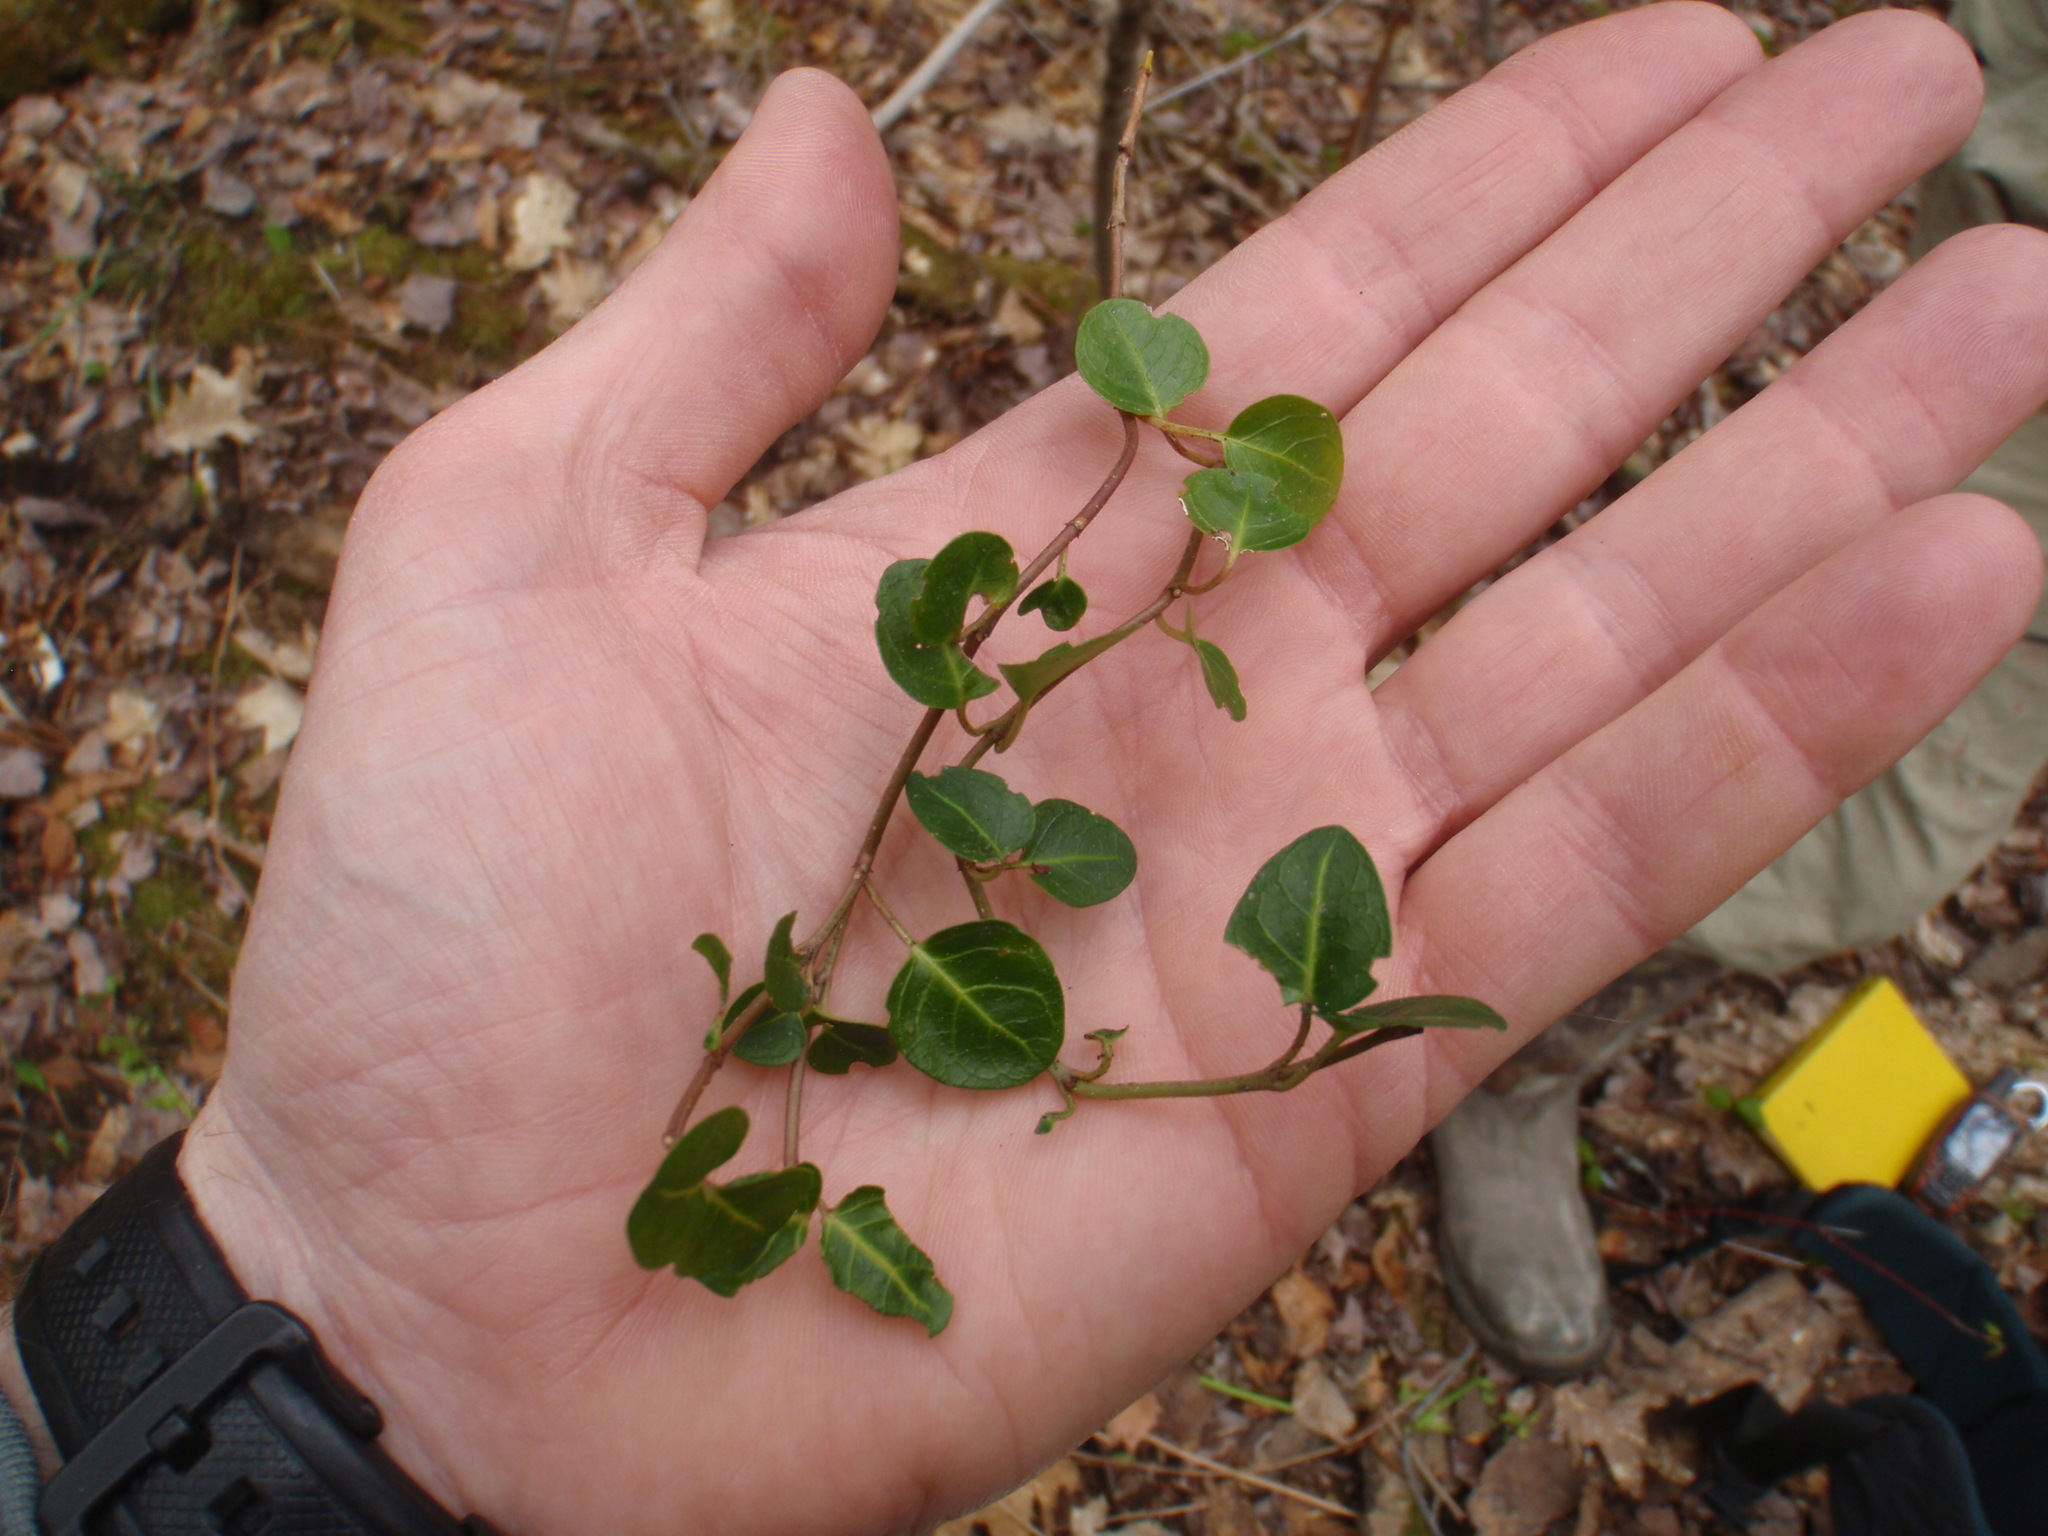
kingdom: Plantae
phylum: Tracheophyta
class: Magnoliopsida
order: Gentianales
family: Rubiaceae
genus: Mitchella
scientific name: Mitchella repens
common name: Partridge-berry
